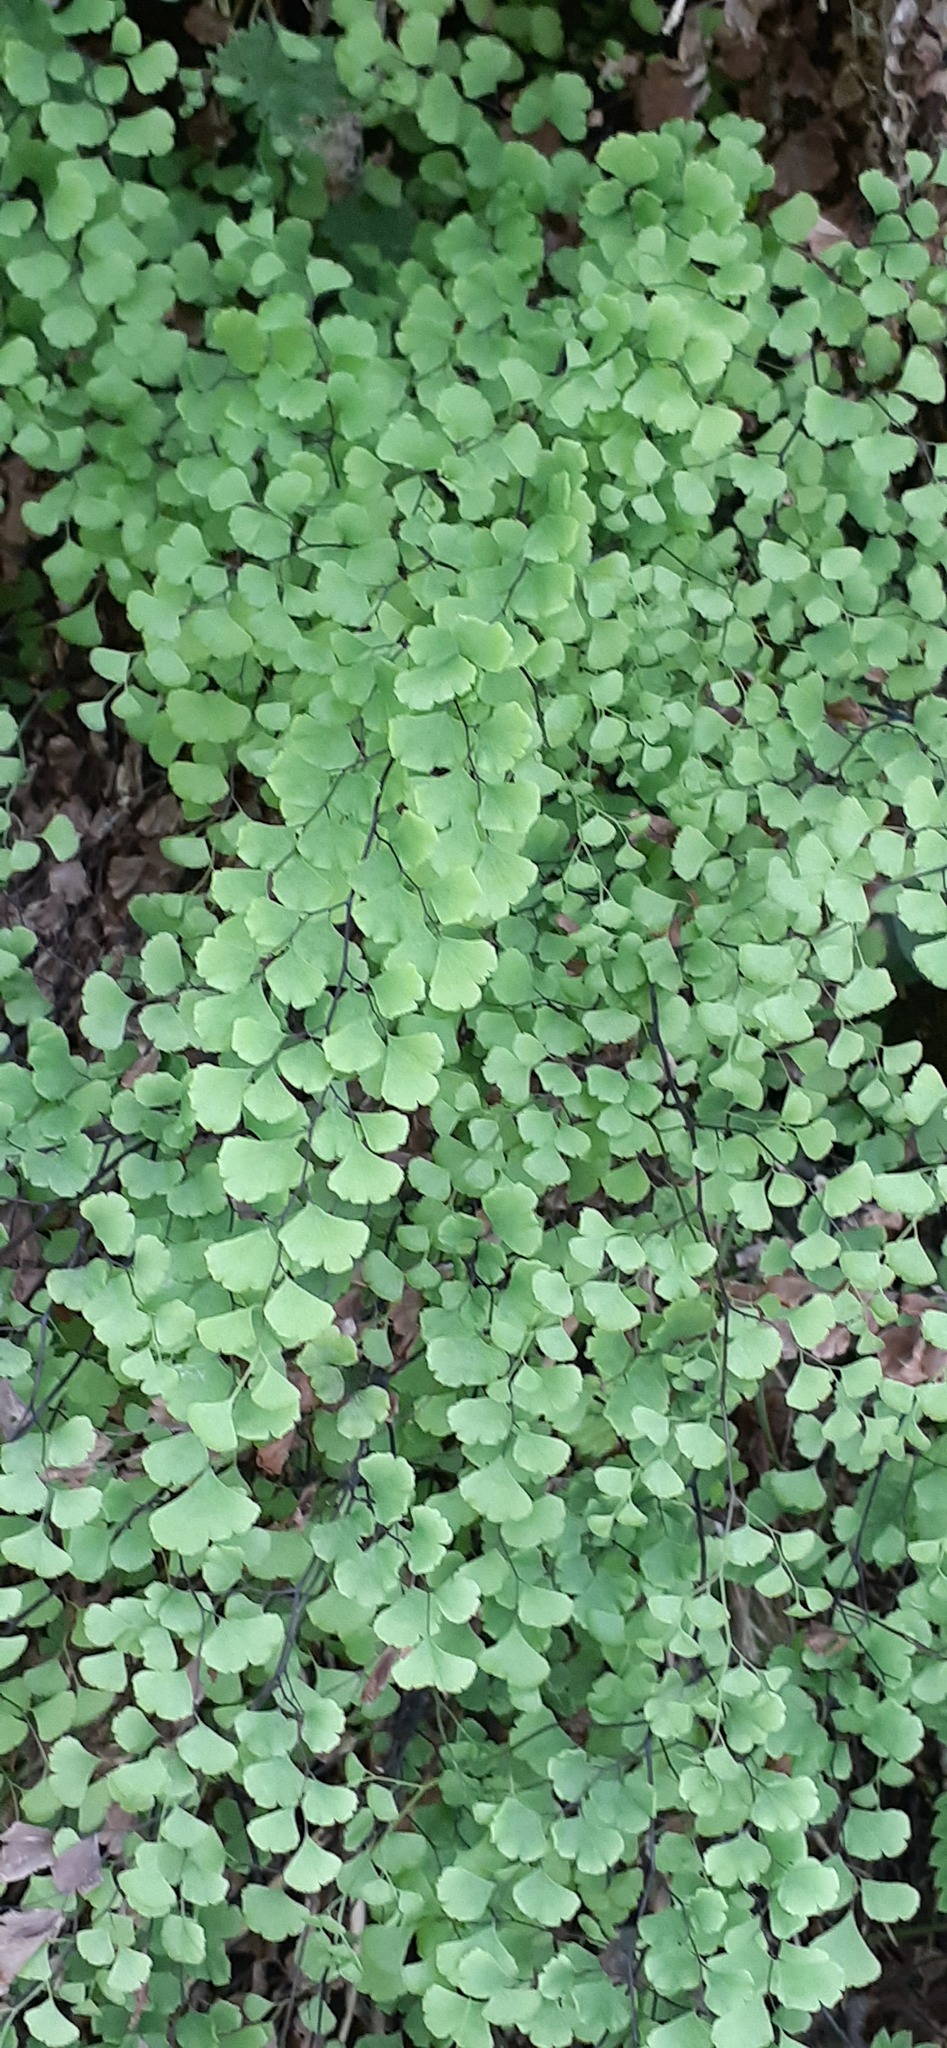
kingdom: Plantae
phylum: Tracheophyta
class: Polypodiopsida
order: Polypodiales
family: Pteridaceae
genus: Adiantum
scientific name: Adiantum capillus-veneris
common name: Maidenhair fern
